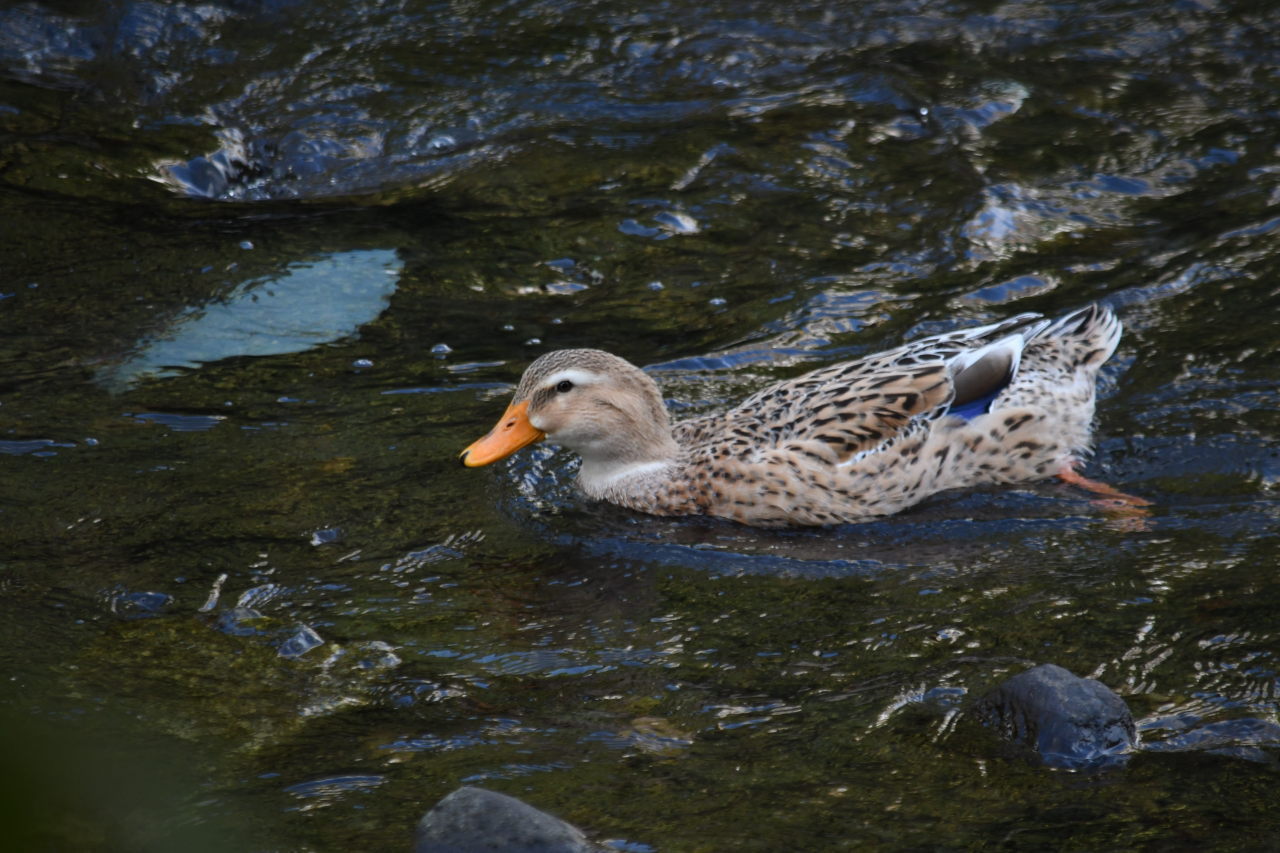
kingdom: Animalia
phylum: Chordata
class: Aves
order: Anseriformes
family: Anatidae
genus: Anas
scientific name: Anas platyrhynchos
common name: Mallard
